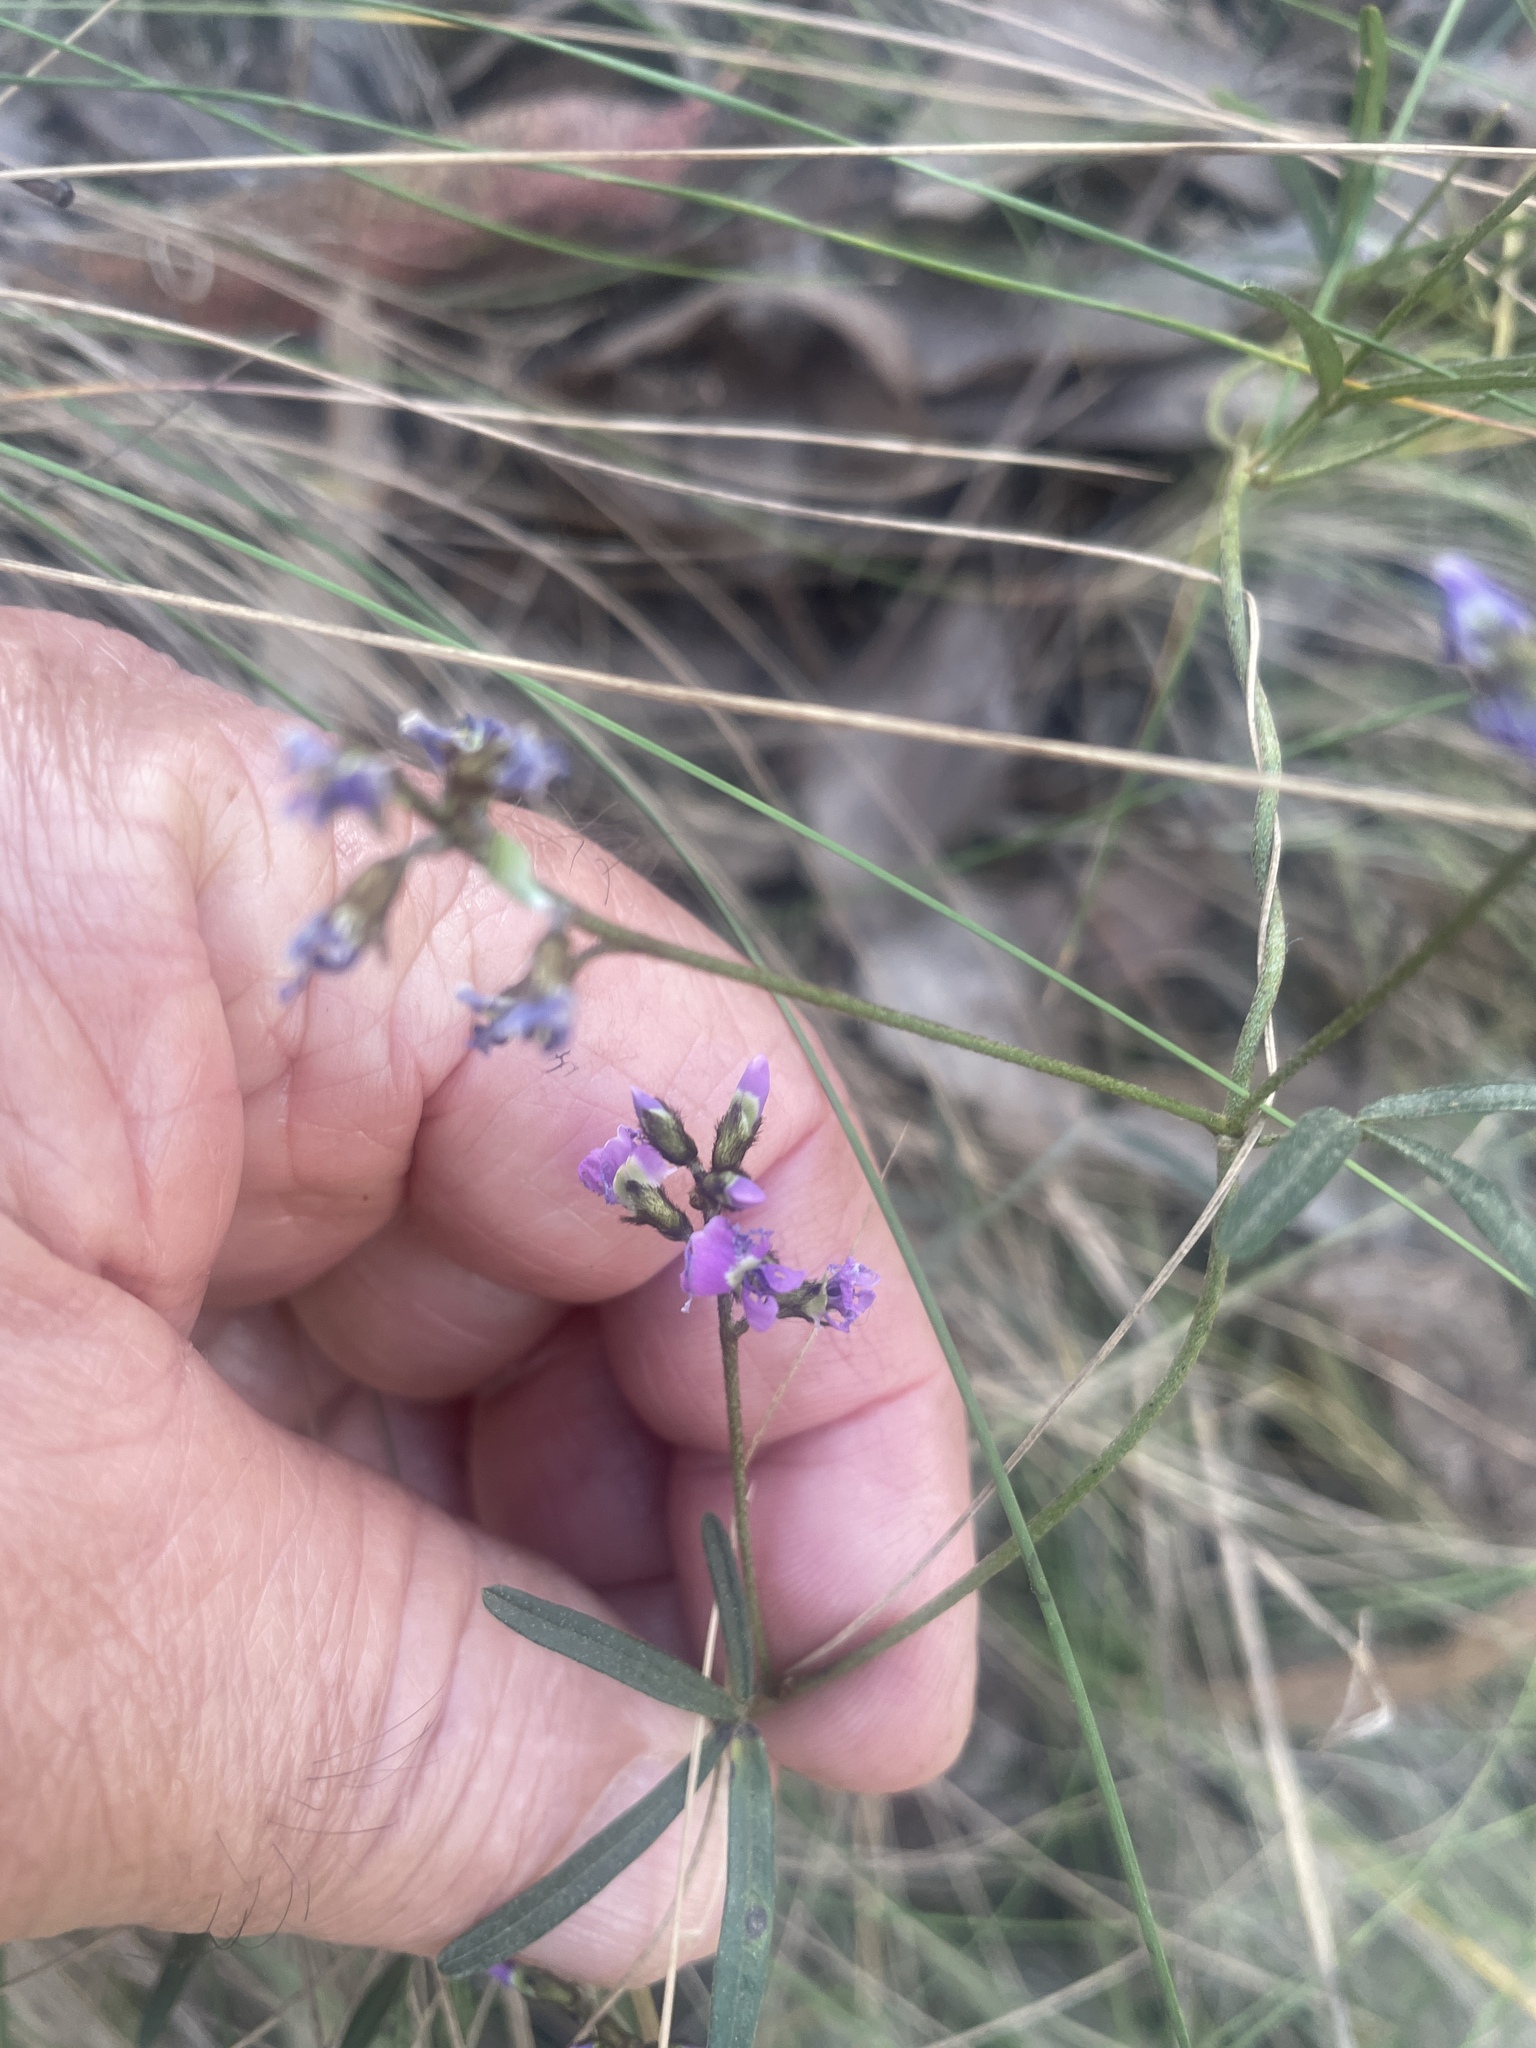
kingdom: Plantae
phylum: Tracheophyta
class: Magnoliopsida
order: Fabales
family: Fabaceae
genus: Glycine
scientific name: Glycine clandestina
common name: Twining glycine
